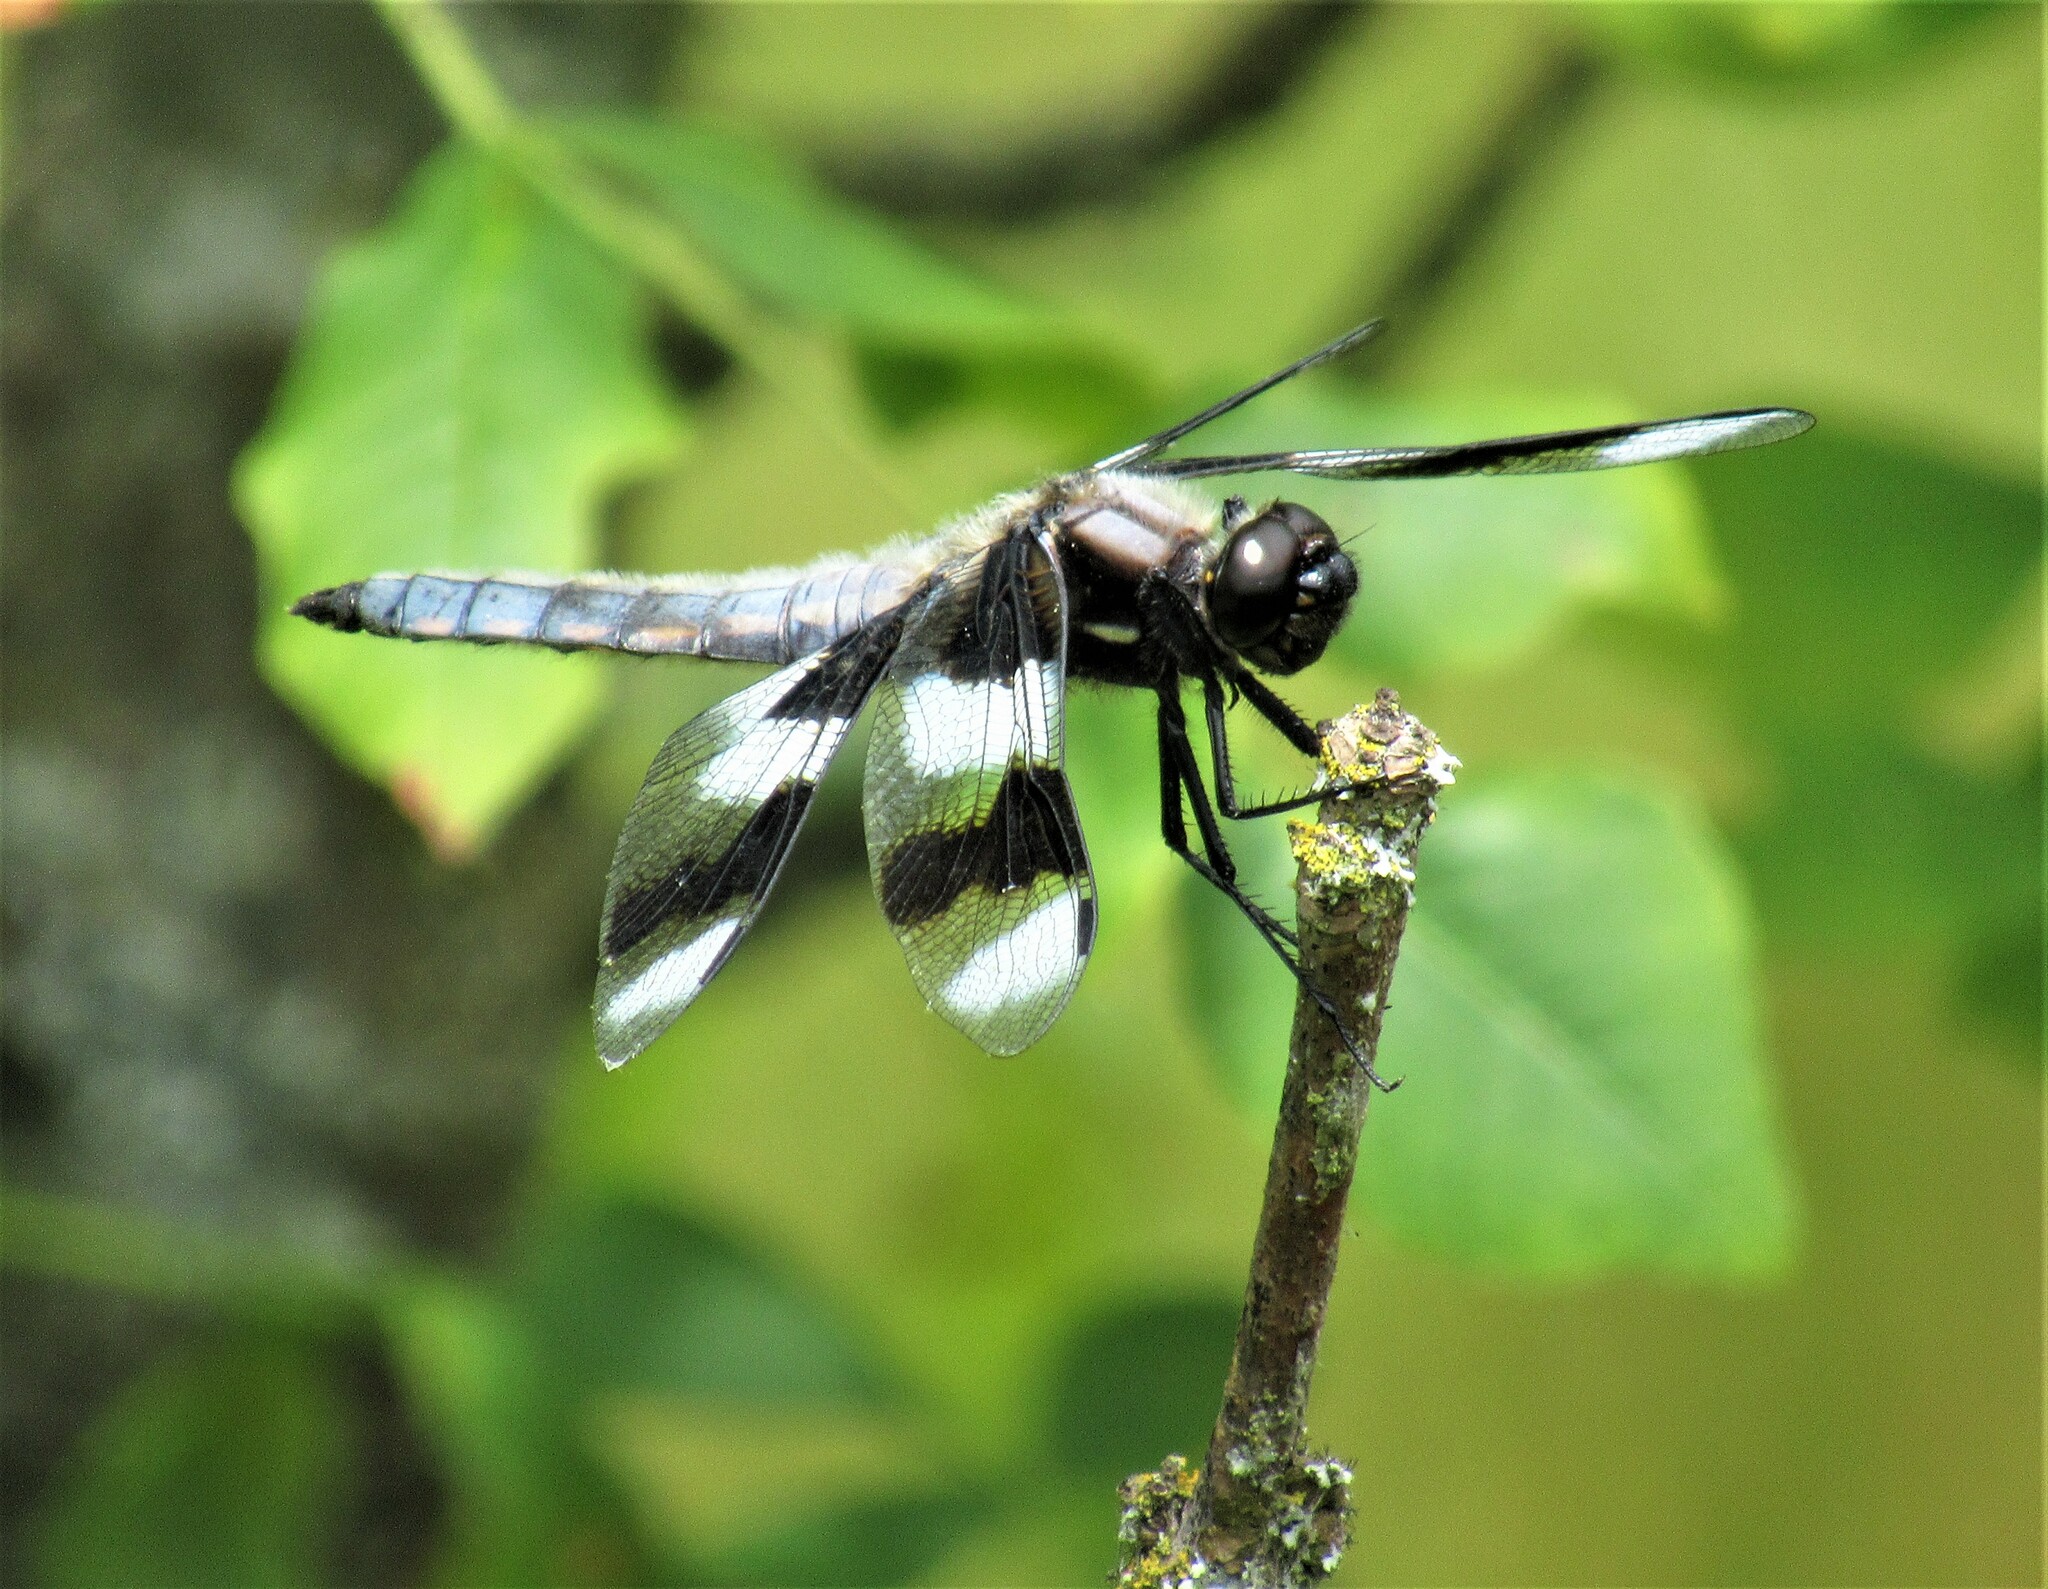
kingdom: Animalia
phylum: Arthropoda
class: Insecta
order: Odonata
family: Libellulidae
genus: Libellula
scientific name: Libellula forensis
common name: Eight-spotted skimmer
